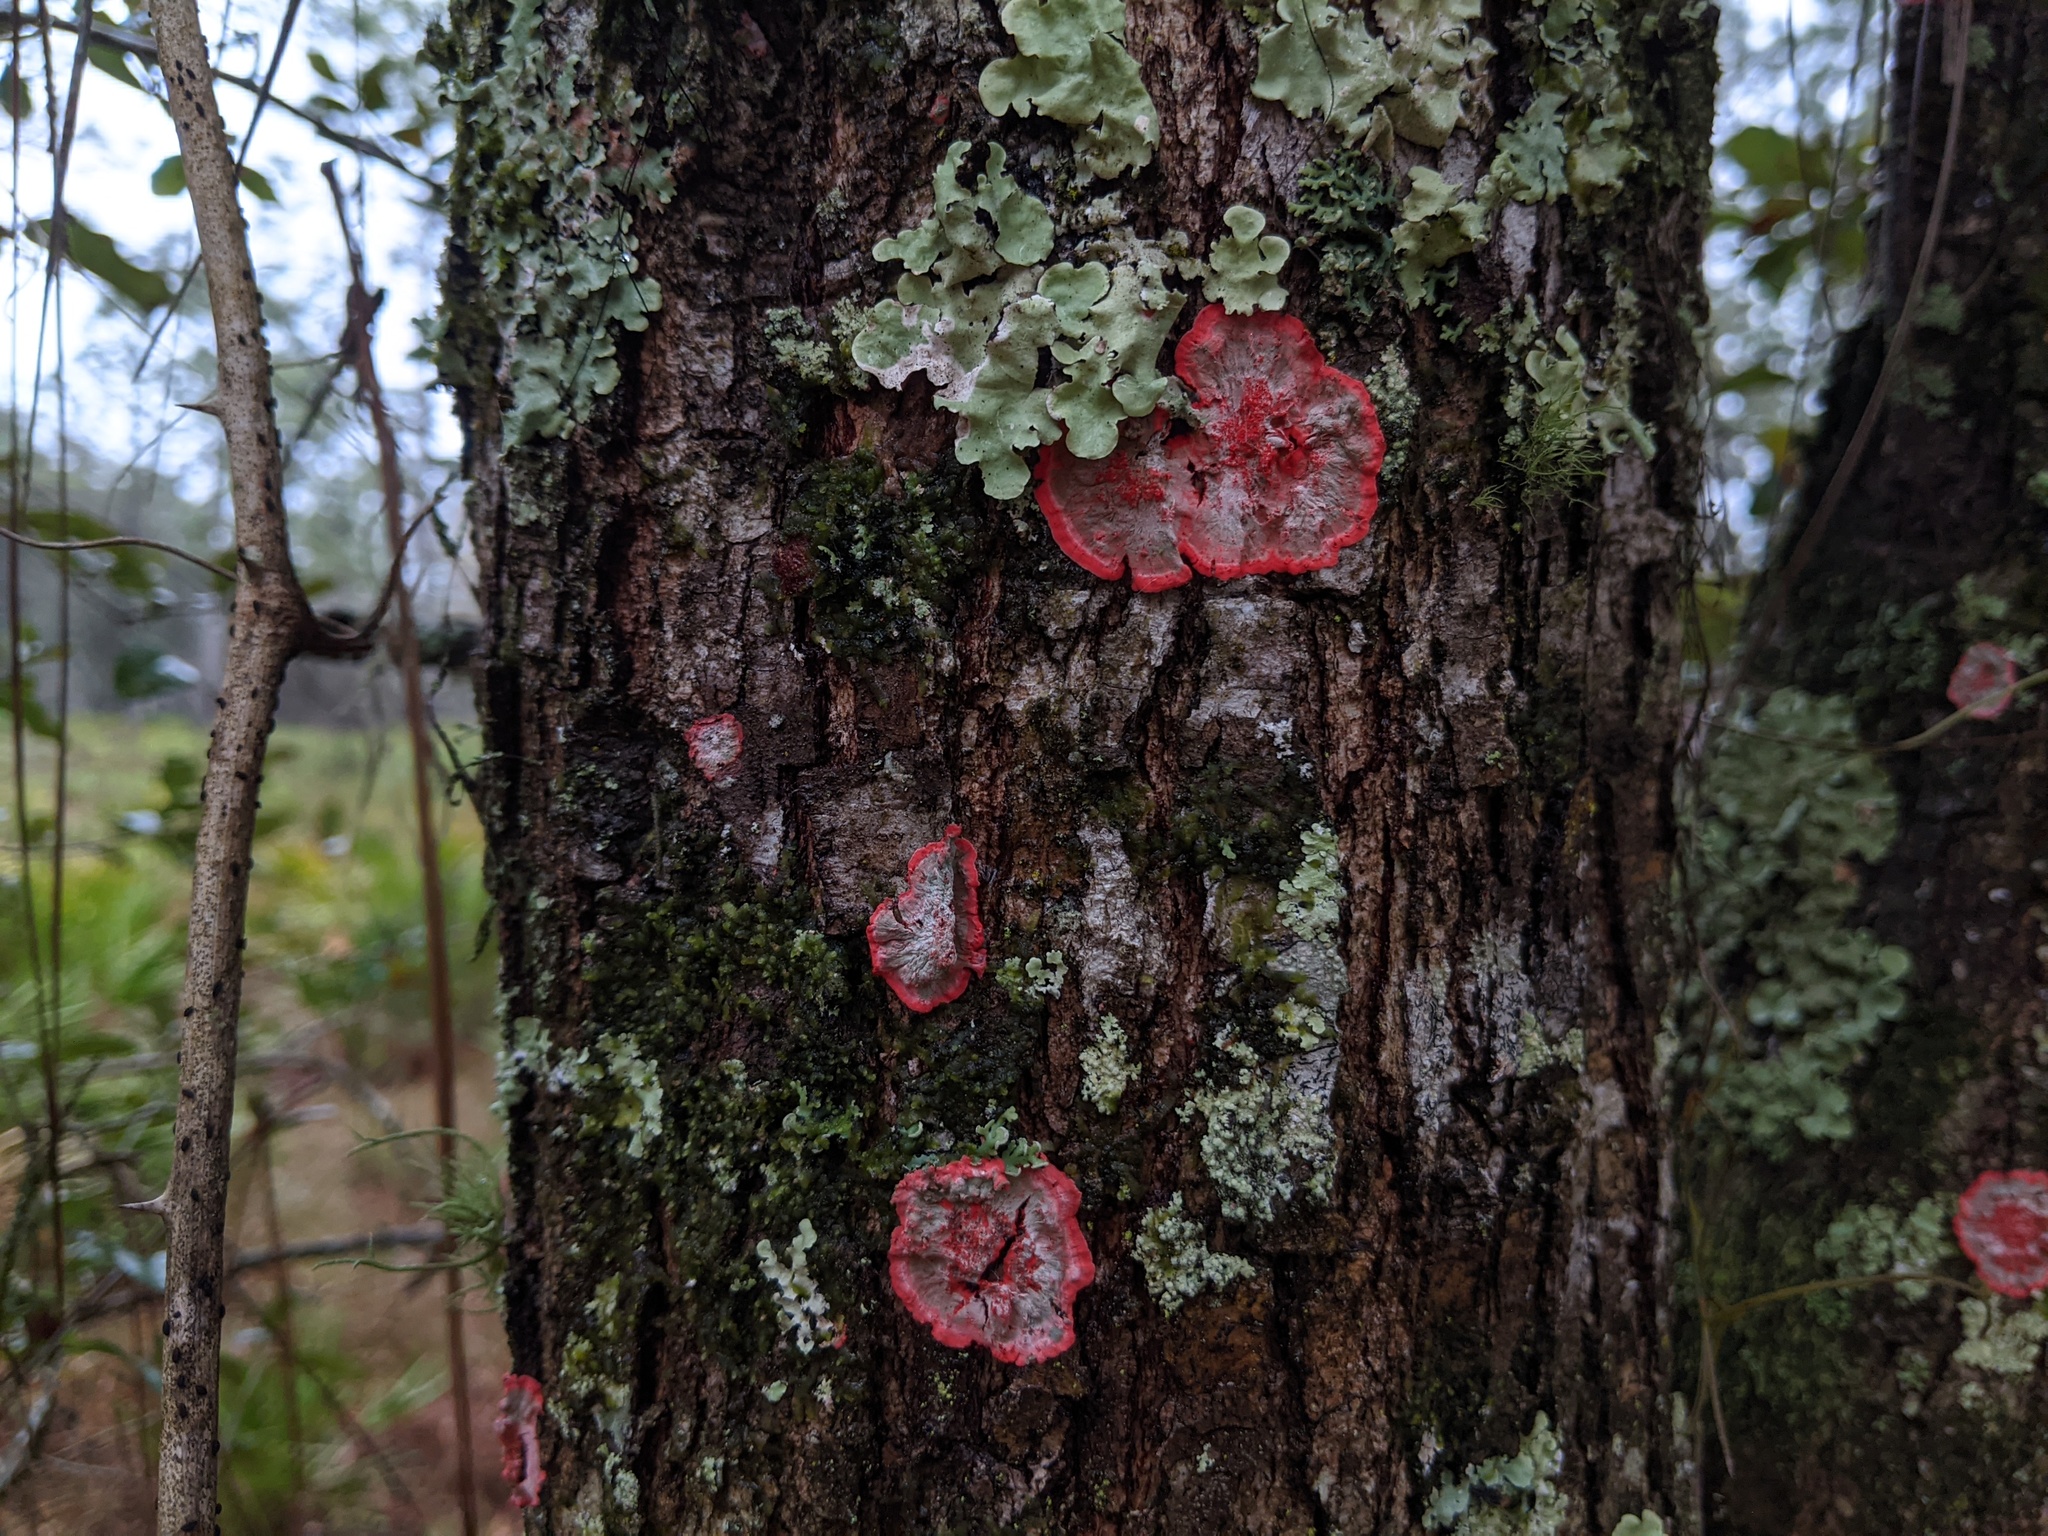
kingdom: Fungi
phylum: Ascomycota
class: Arthoniomycetes
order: Arthoniales
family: Arthoniaceae
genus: Herpothallon
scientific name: Herpothallon rubrocinctum
